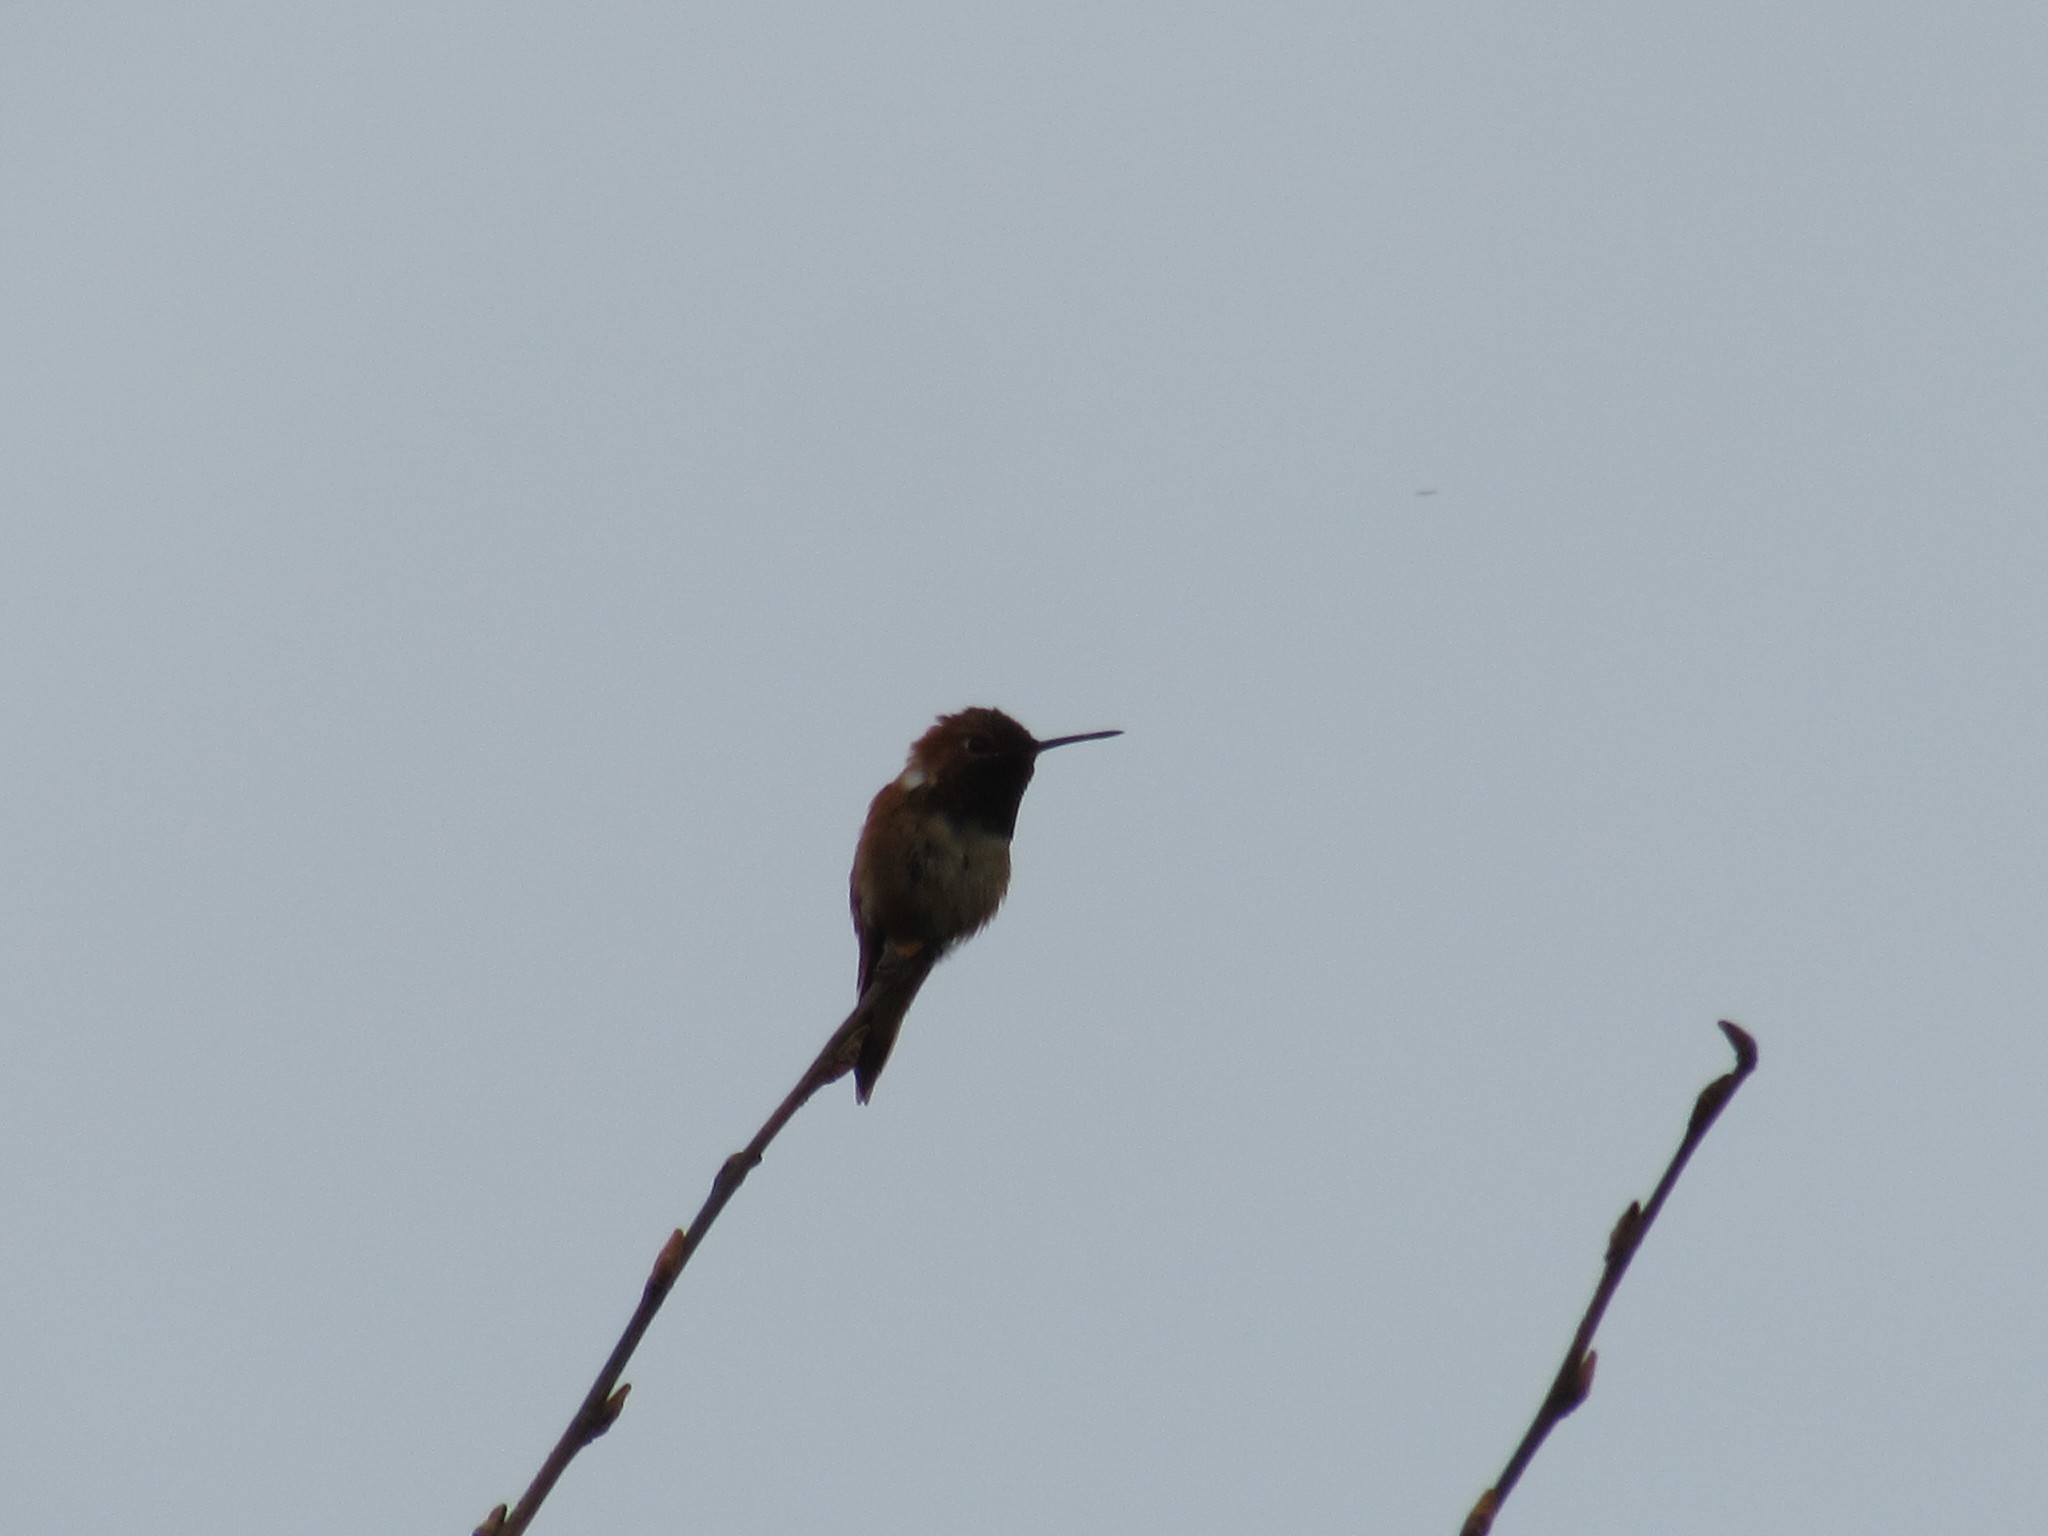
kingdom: Animalia
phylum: Chordata
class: Aves
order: Apodiformes
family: Trochilidae
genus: Selasphorus
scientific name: Selasphorus rufus
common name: Rufous hummingbird
